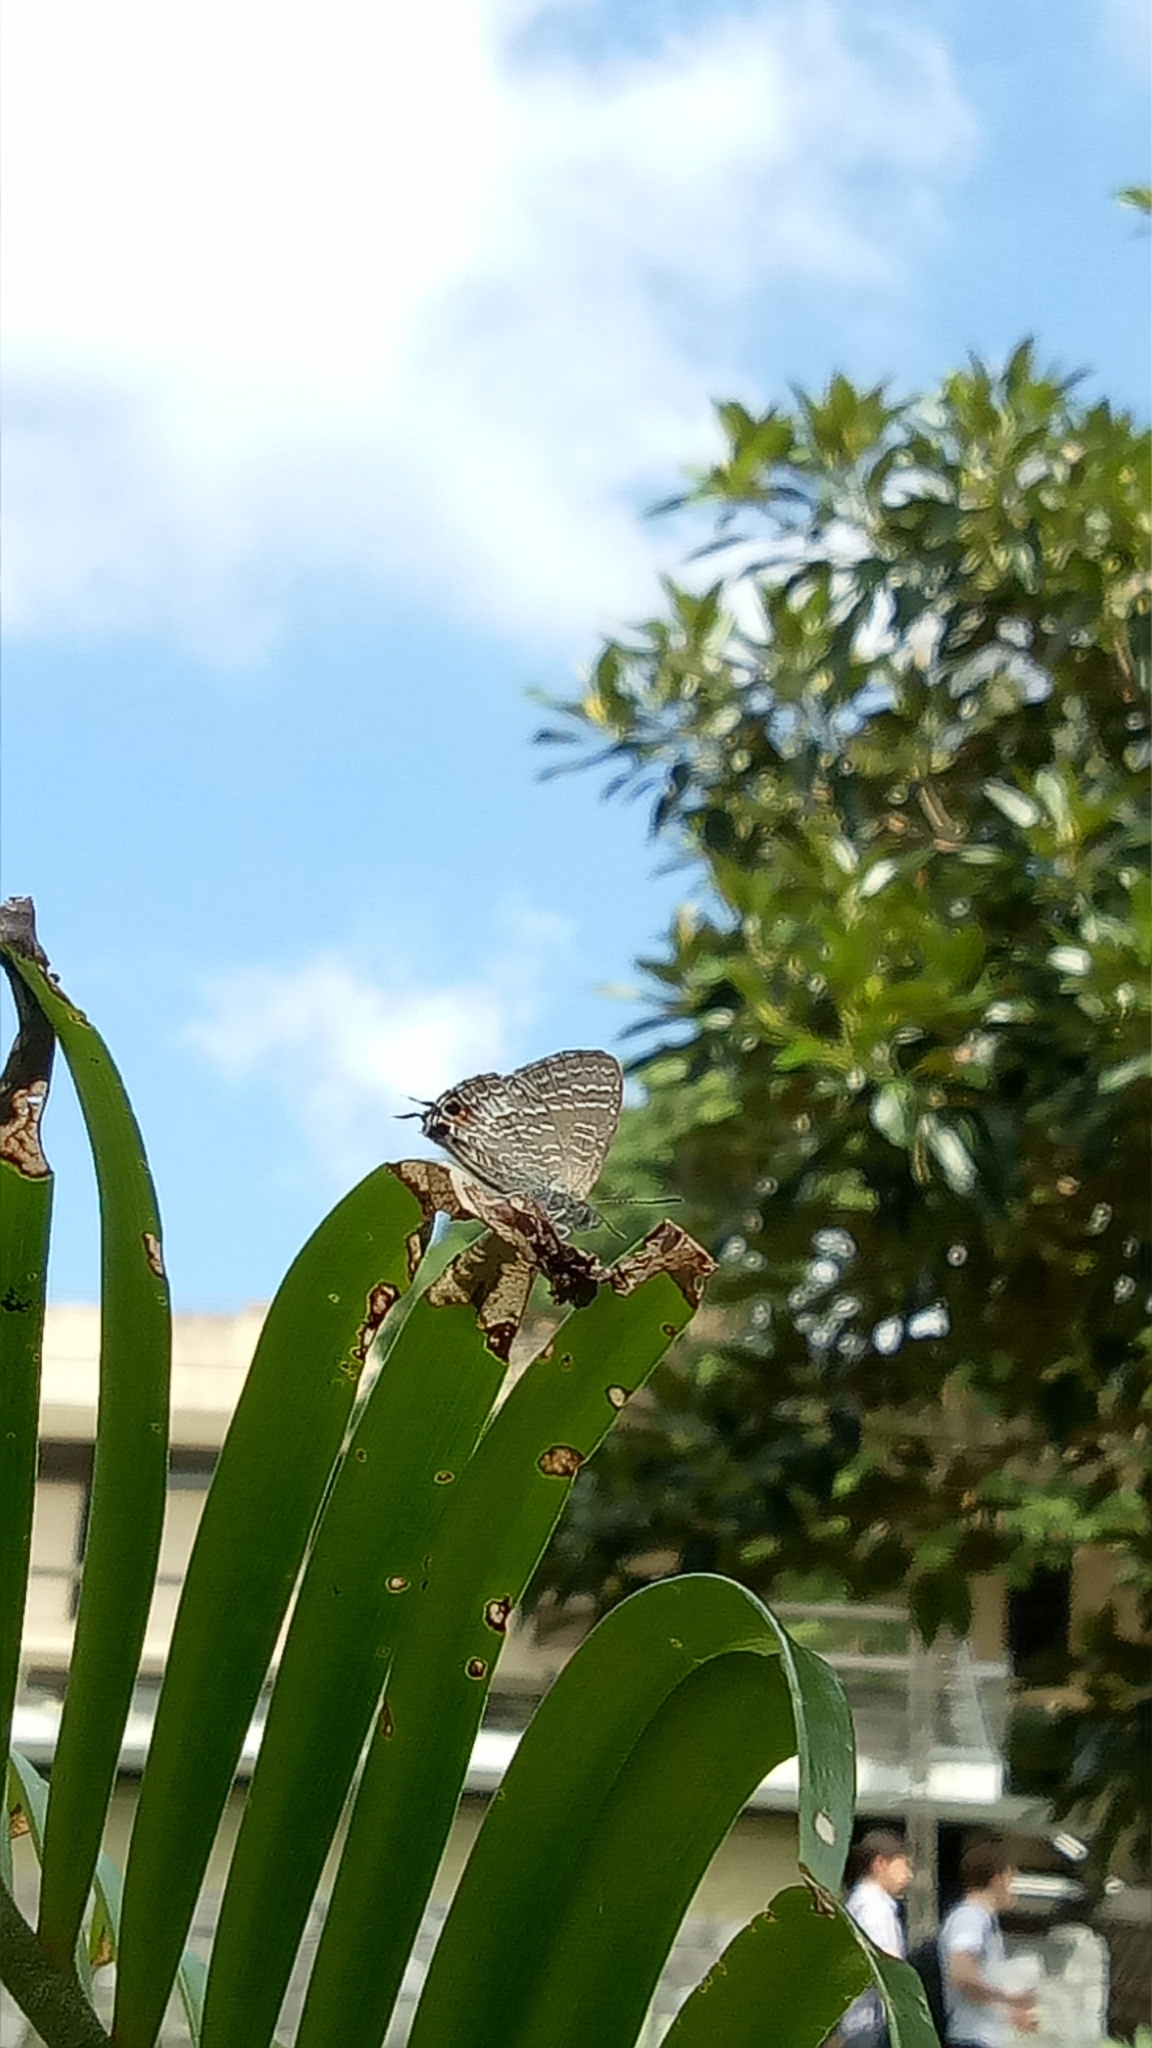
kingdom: Animalia
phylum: Arthropoda
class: Insecta
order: Lepidoptera
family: Lycaenidae
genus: Theclinesthes
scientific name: Theclinesthes onycha
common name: Cycad blue
